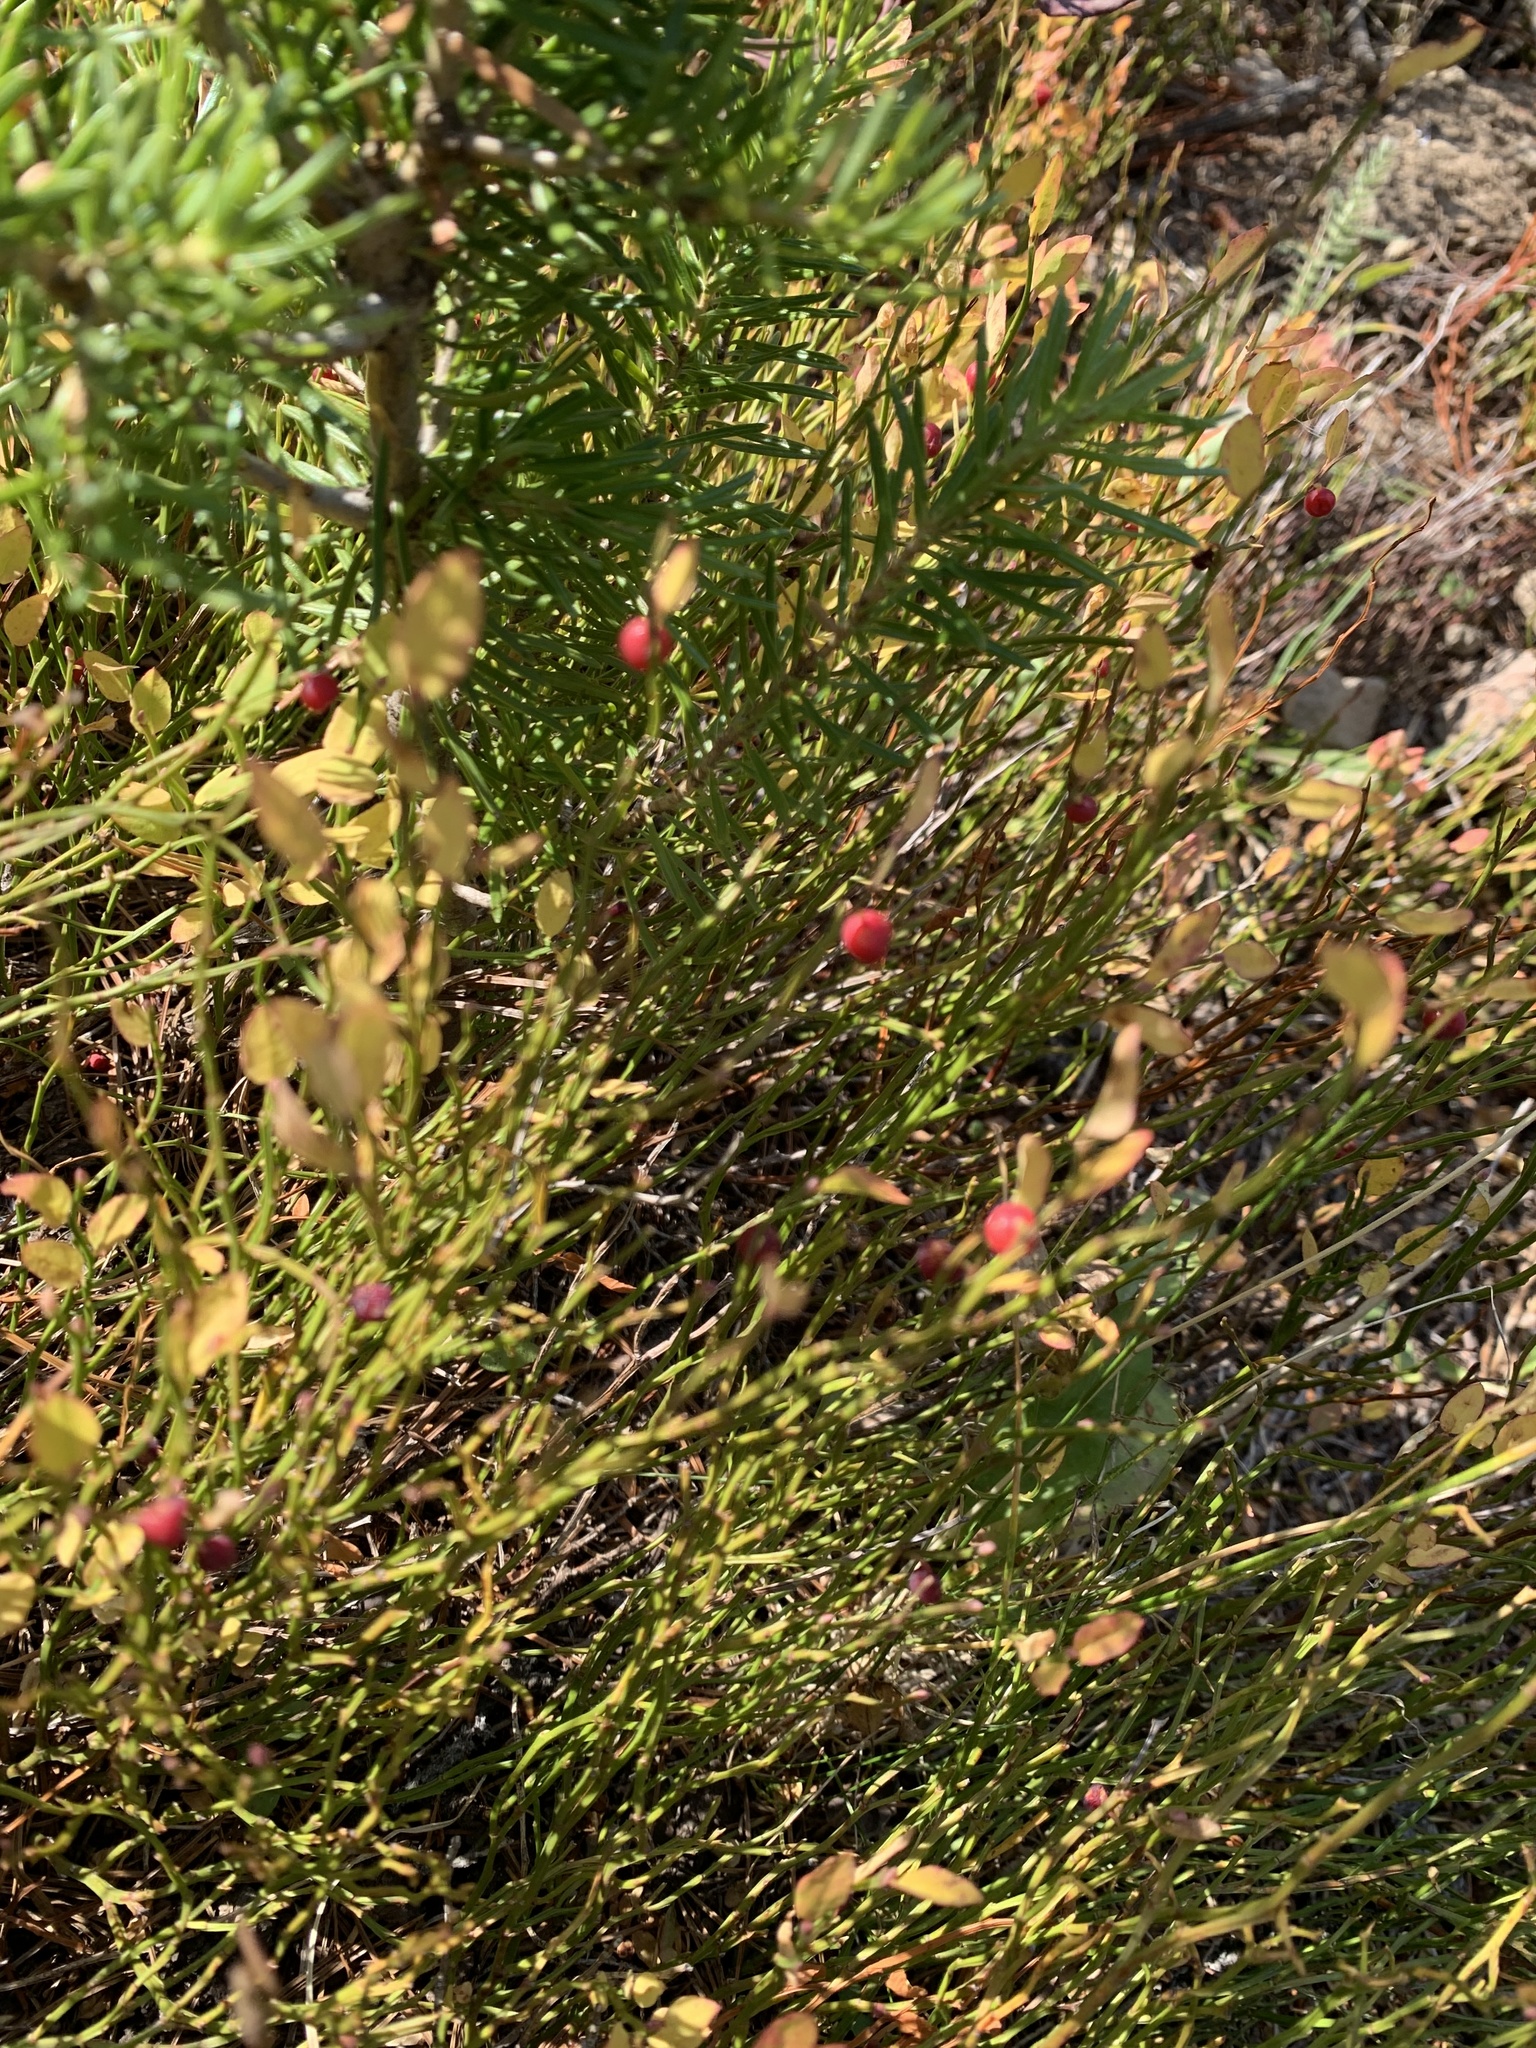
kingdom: Plantae
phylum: Tracheophyta
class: Magnoliopsida
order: Ericales
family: Ericaceae
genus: Vaccinium
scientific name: Vaccinium scoparium
